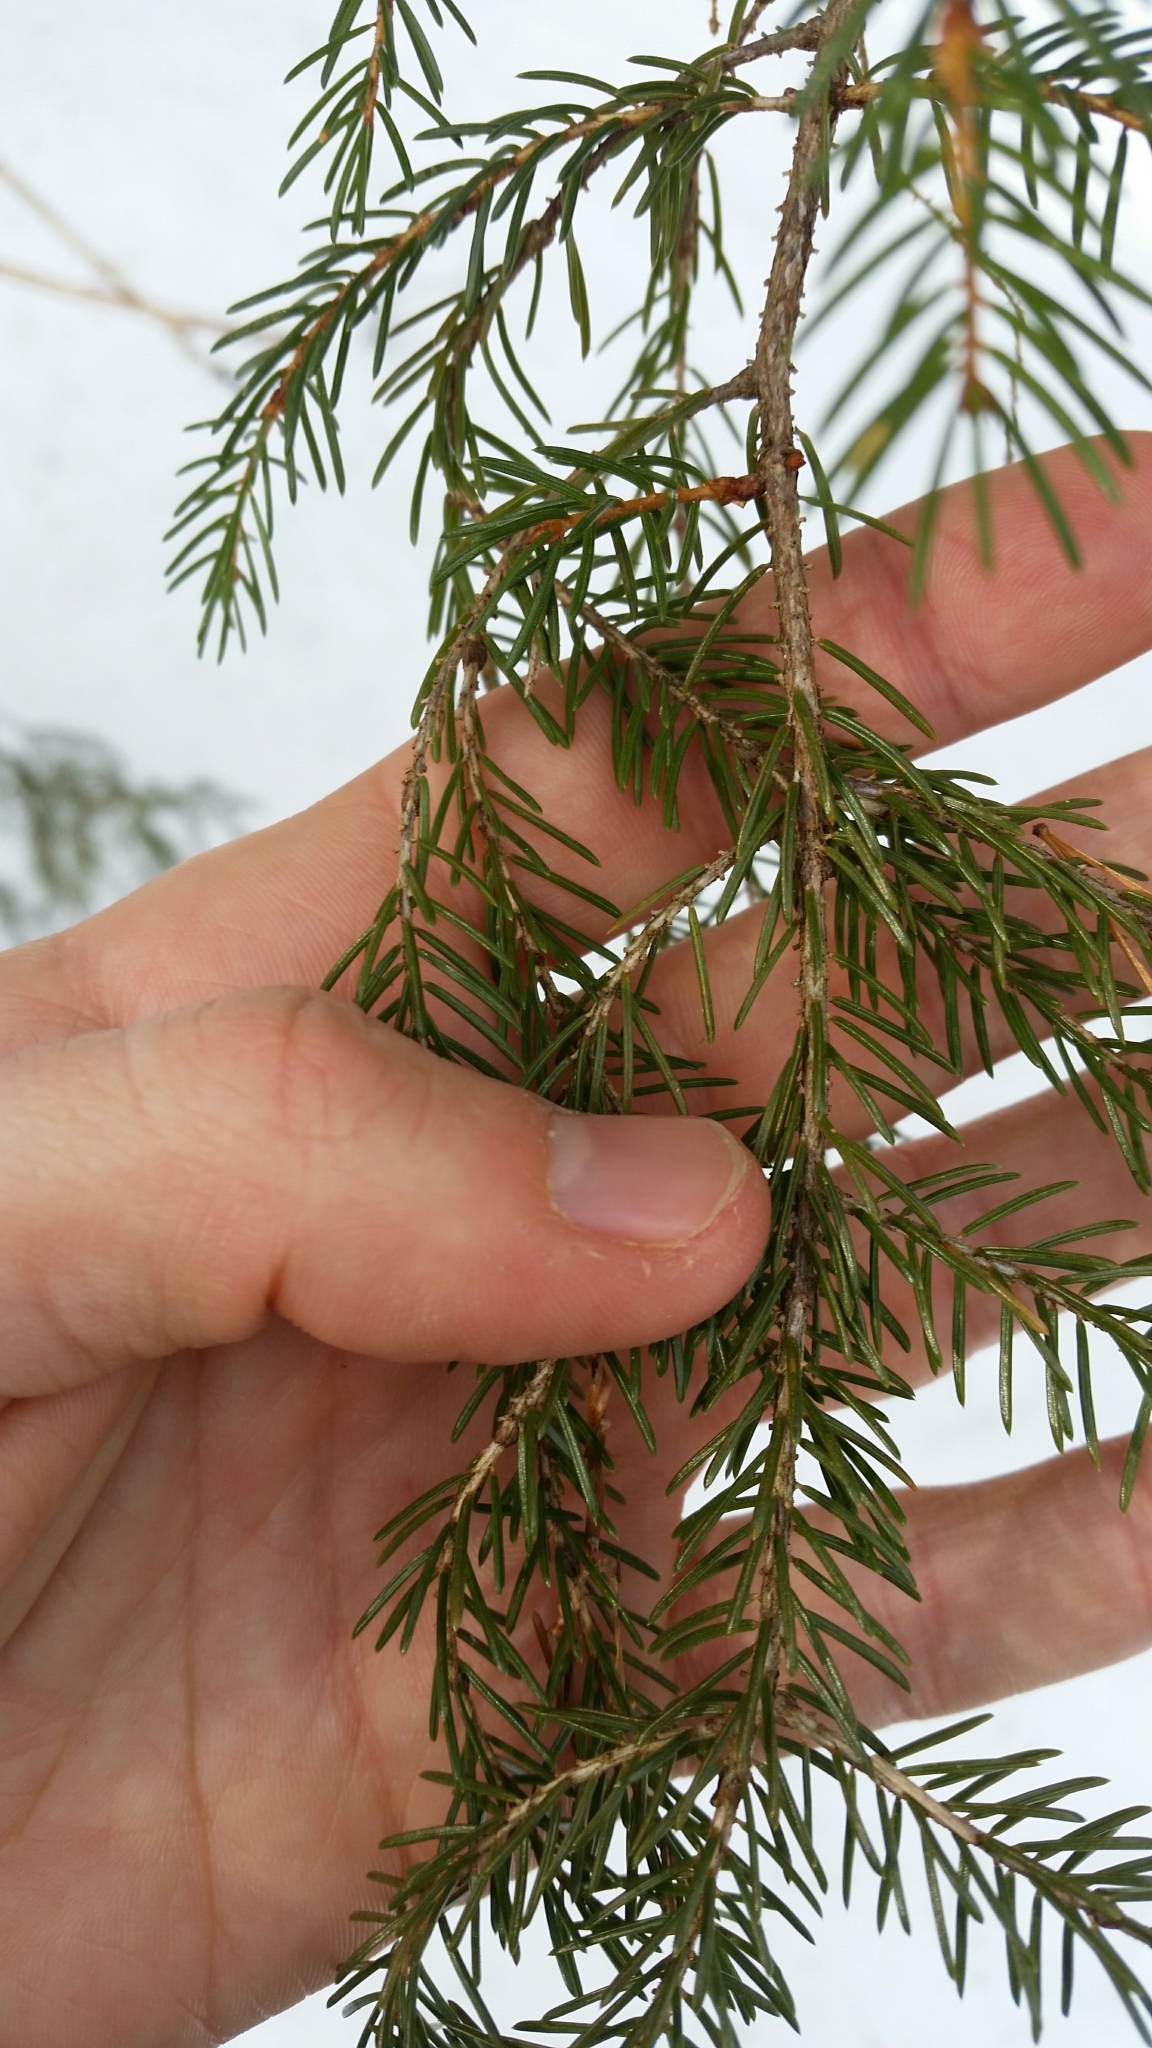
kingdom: Plantae
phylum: Tracheophyta
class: Pinopsida
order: Pinales
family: Pinaceae
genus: Picea
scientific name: Picea rubens
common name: Red spruce
